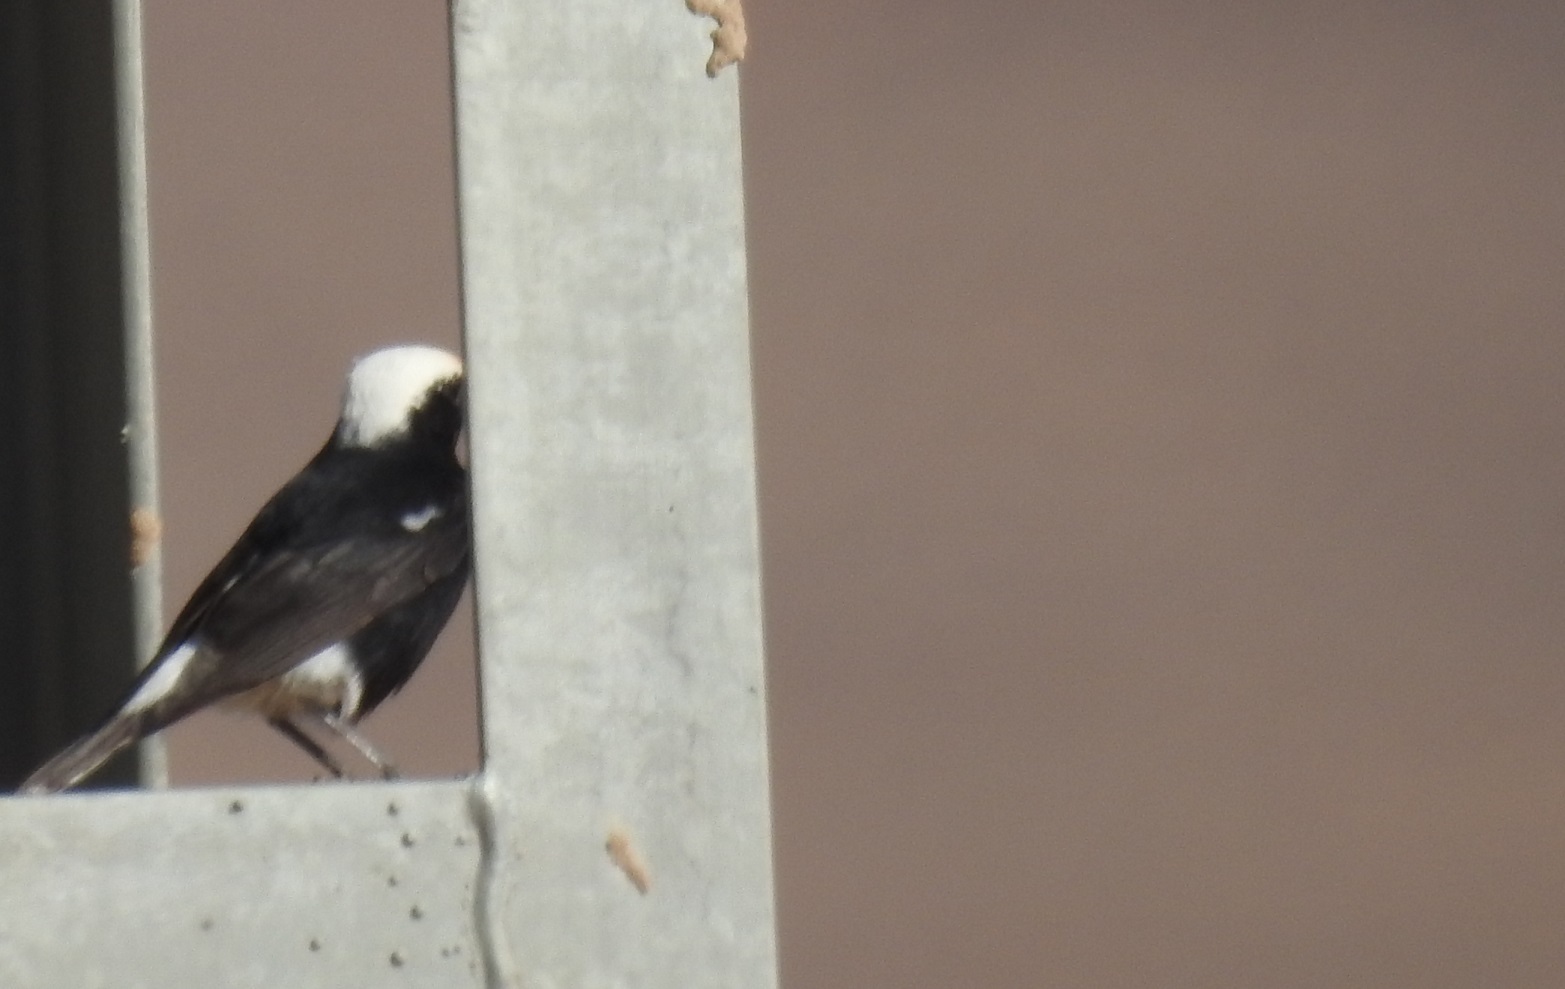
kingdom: Animalia
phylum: Chordata
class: Aves
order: Passeriformes
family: Muscicapidae
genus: Oenanthe
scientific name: Oenanthe leucopyga
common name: White-crowned wheatear
